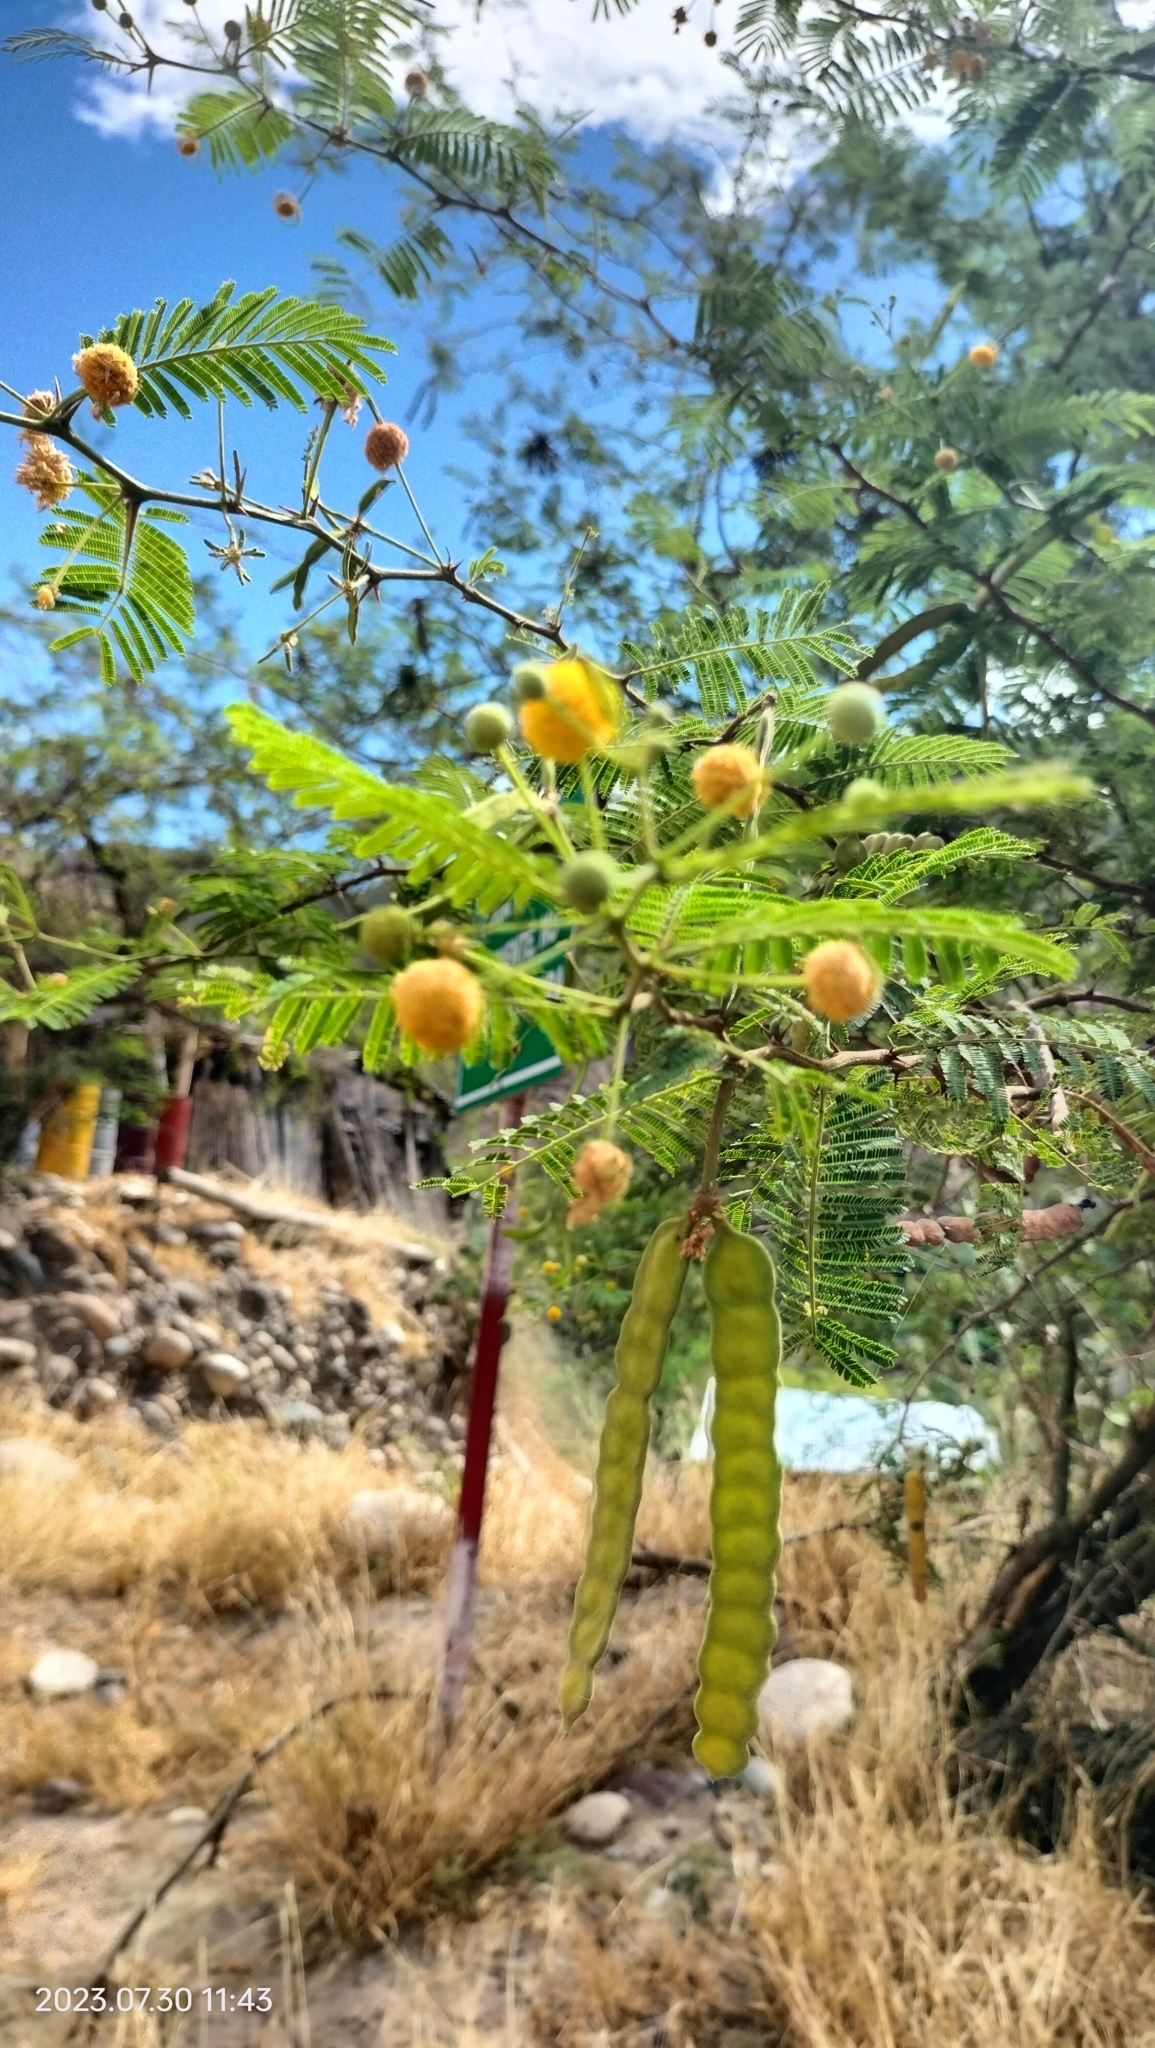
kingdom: Plantae
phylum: Tracheophyta
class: Magnoliopsida
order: Fabales
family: Fabaceae
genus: Vachellia
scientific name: Vachellia macracantha
